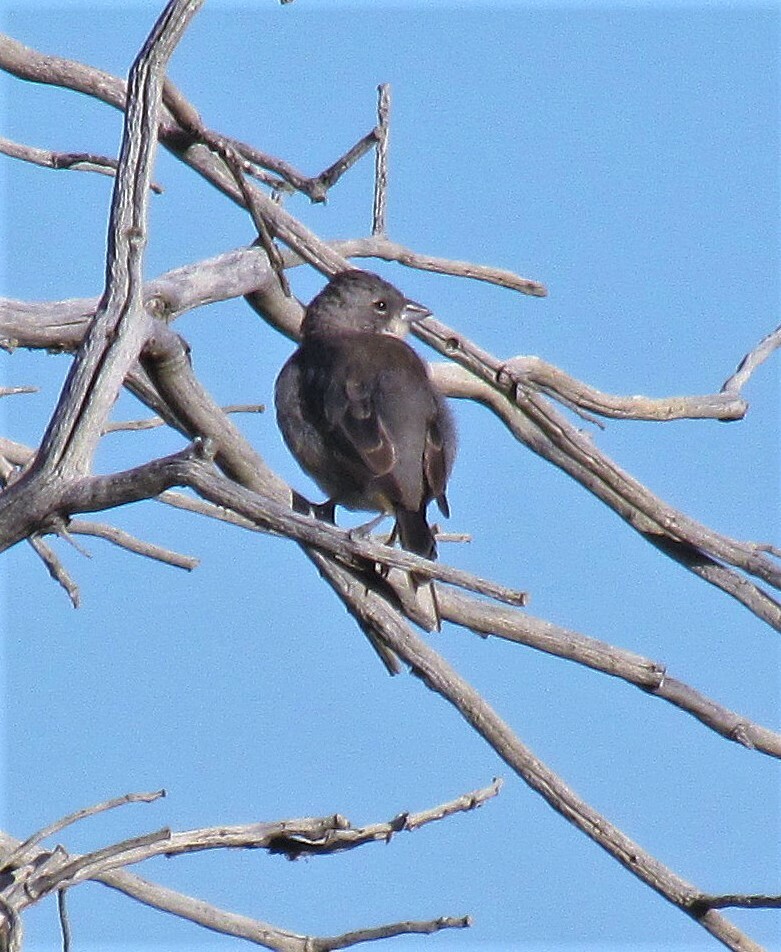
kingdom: Animalia
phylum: Chordata
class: Aves
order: Passeriformes
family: Thraupidae
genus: Diuca
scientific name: Diuca diuca
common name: Common diuca finch
